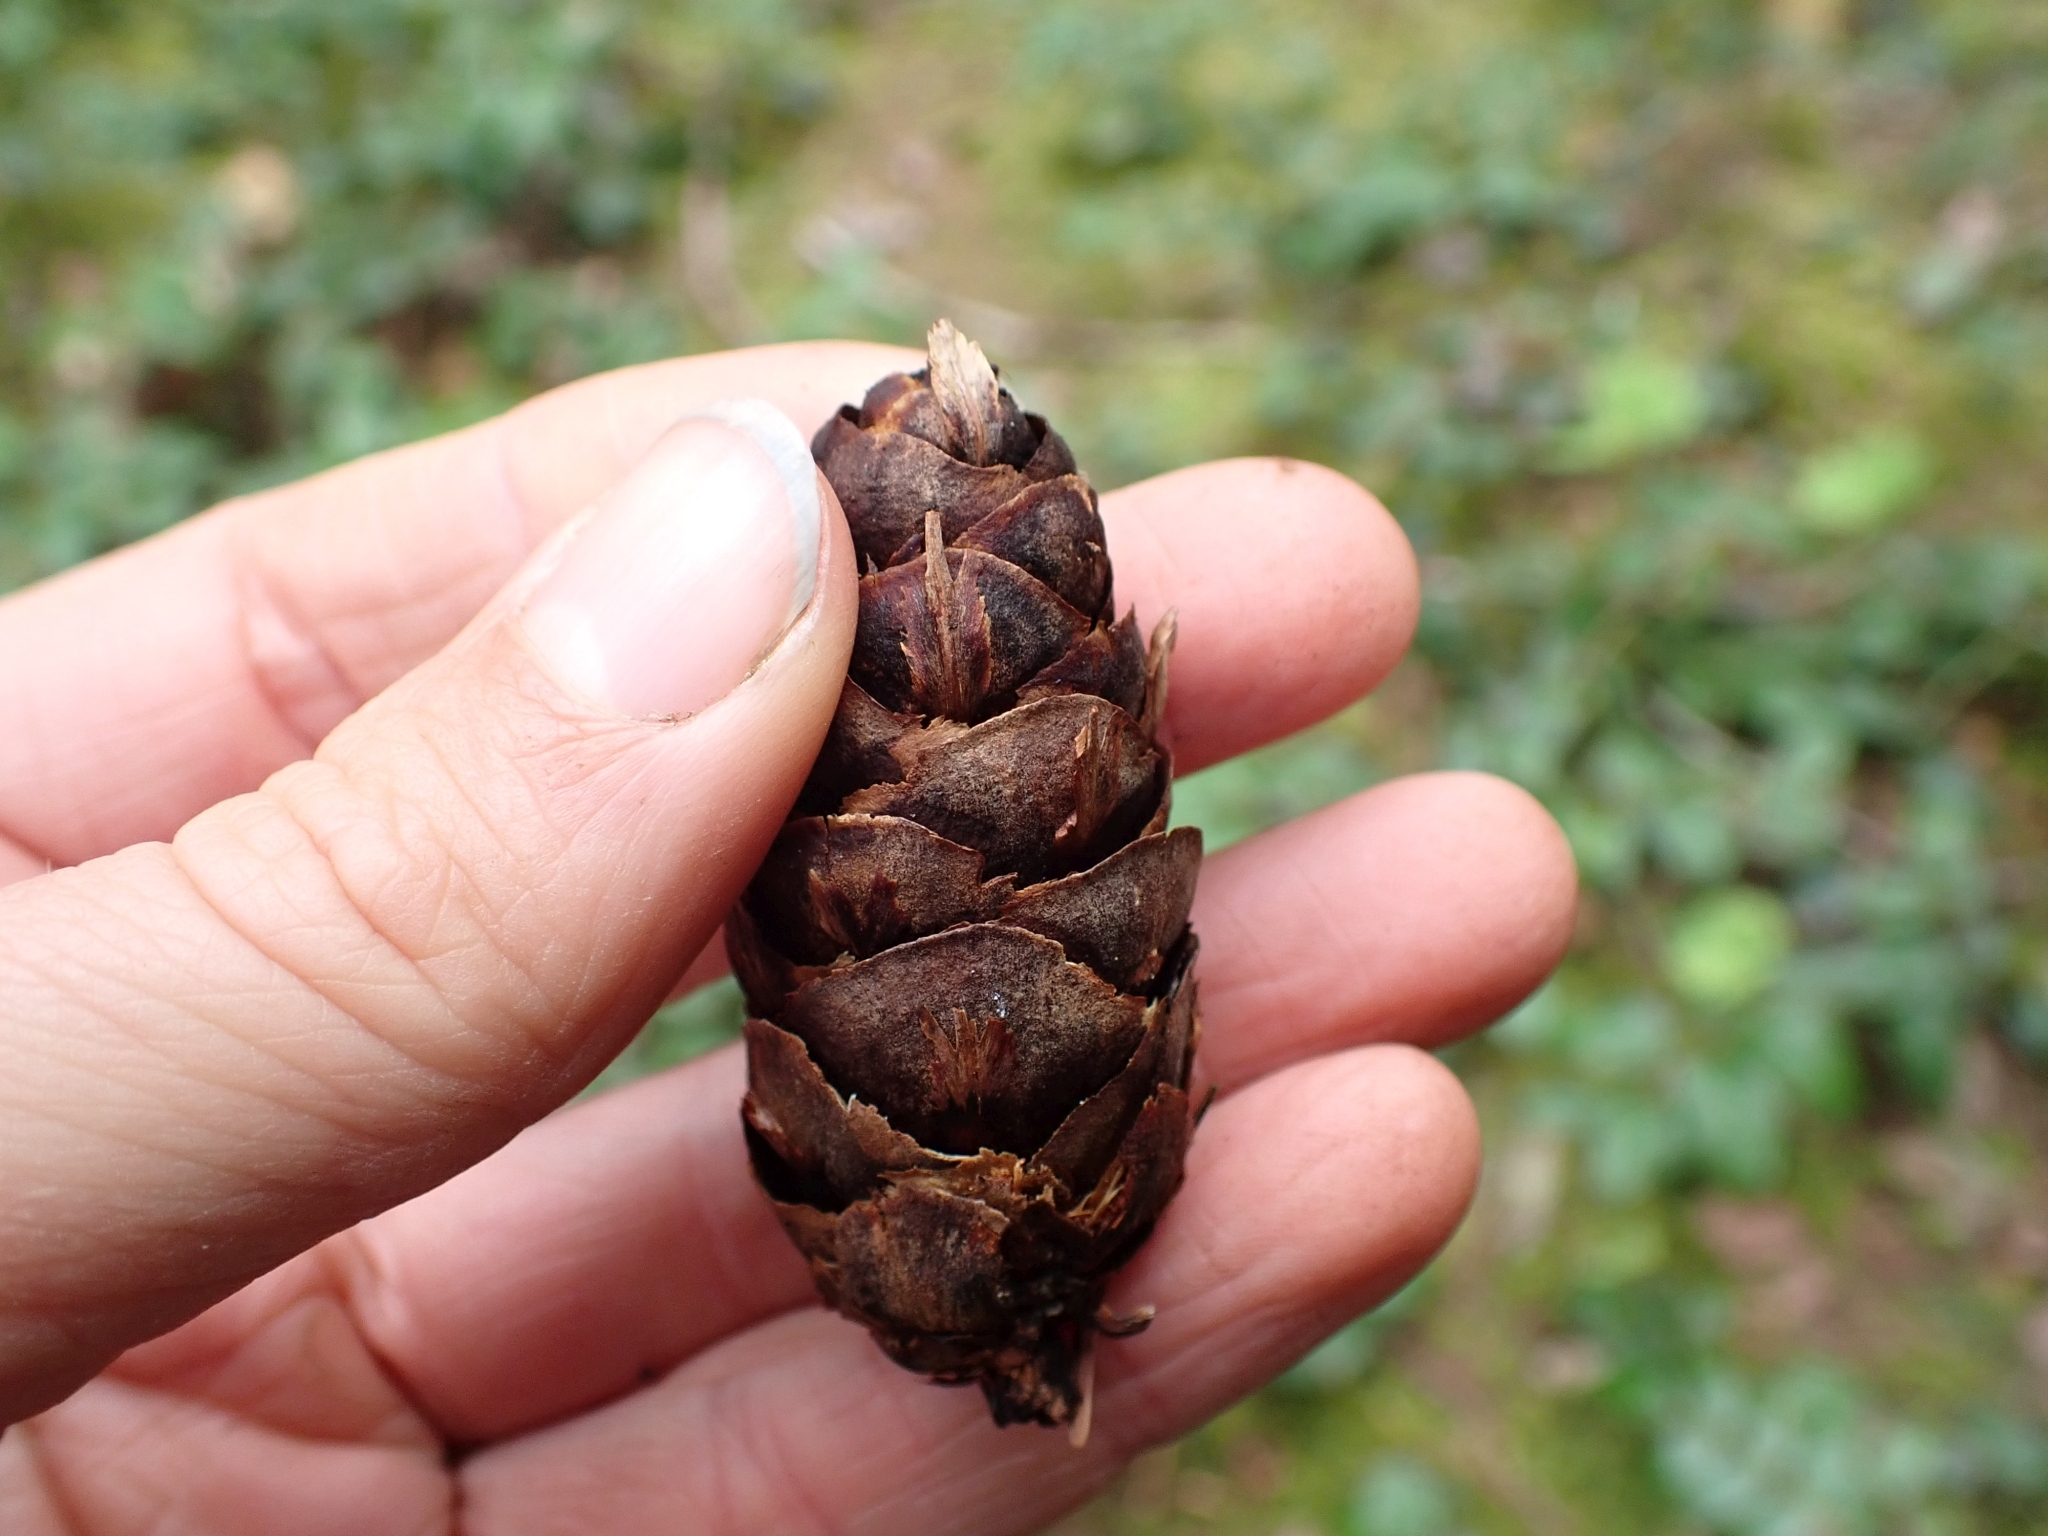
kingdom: Plantae
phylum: Tracheophyta
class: Pinopsida
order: Pinales
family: Pinaceae
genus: Pseudotsuga
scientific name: Pseudotsuga menziesii
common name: Douglas fir
